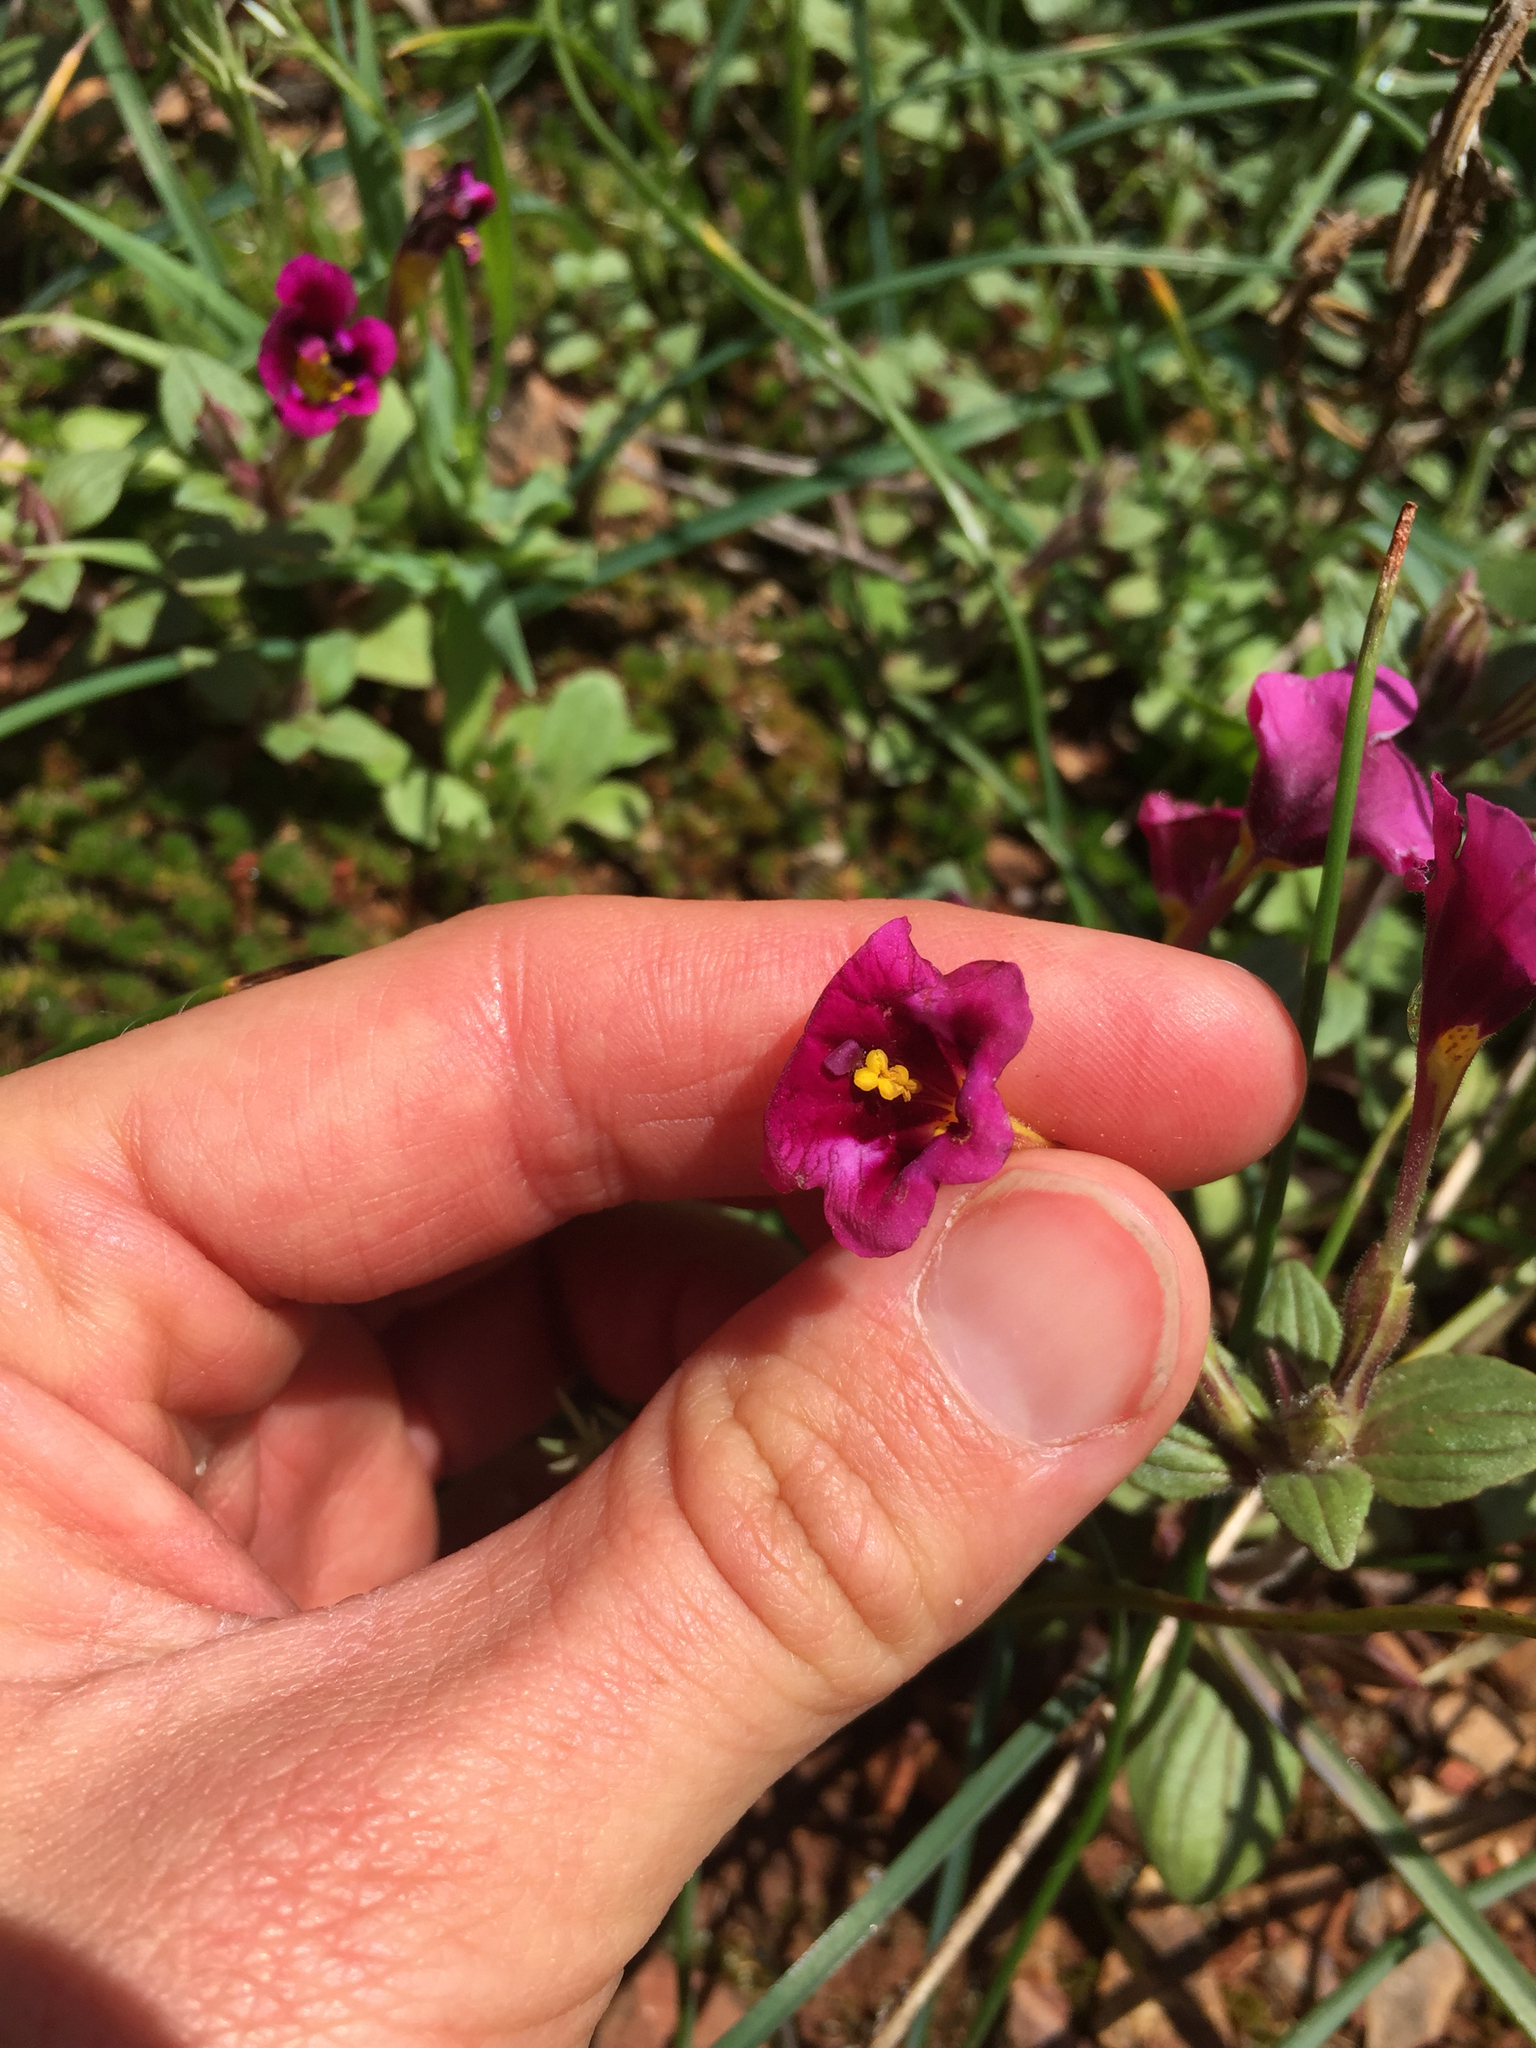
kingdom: Plantae
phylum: Tracheophyta
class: Magnoliopsida
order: Lamiales
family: Phrymaceae
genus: Diplacus
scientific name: Diplacus kelloggii
